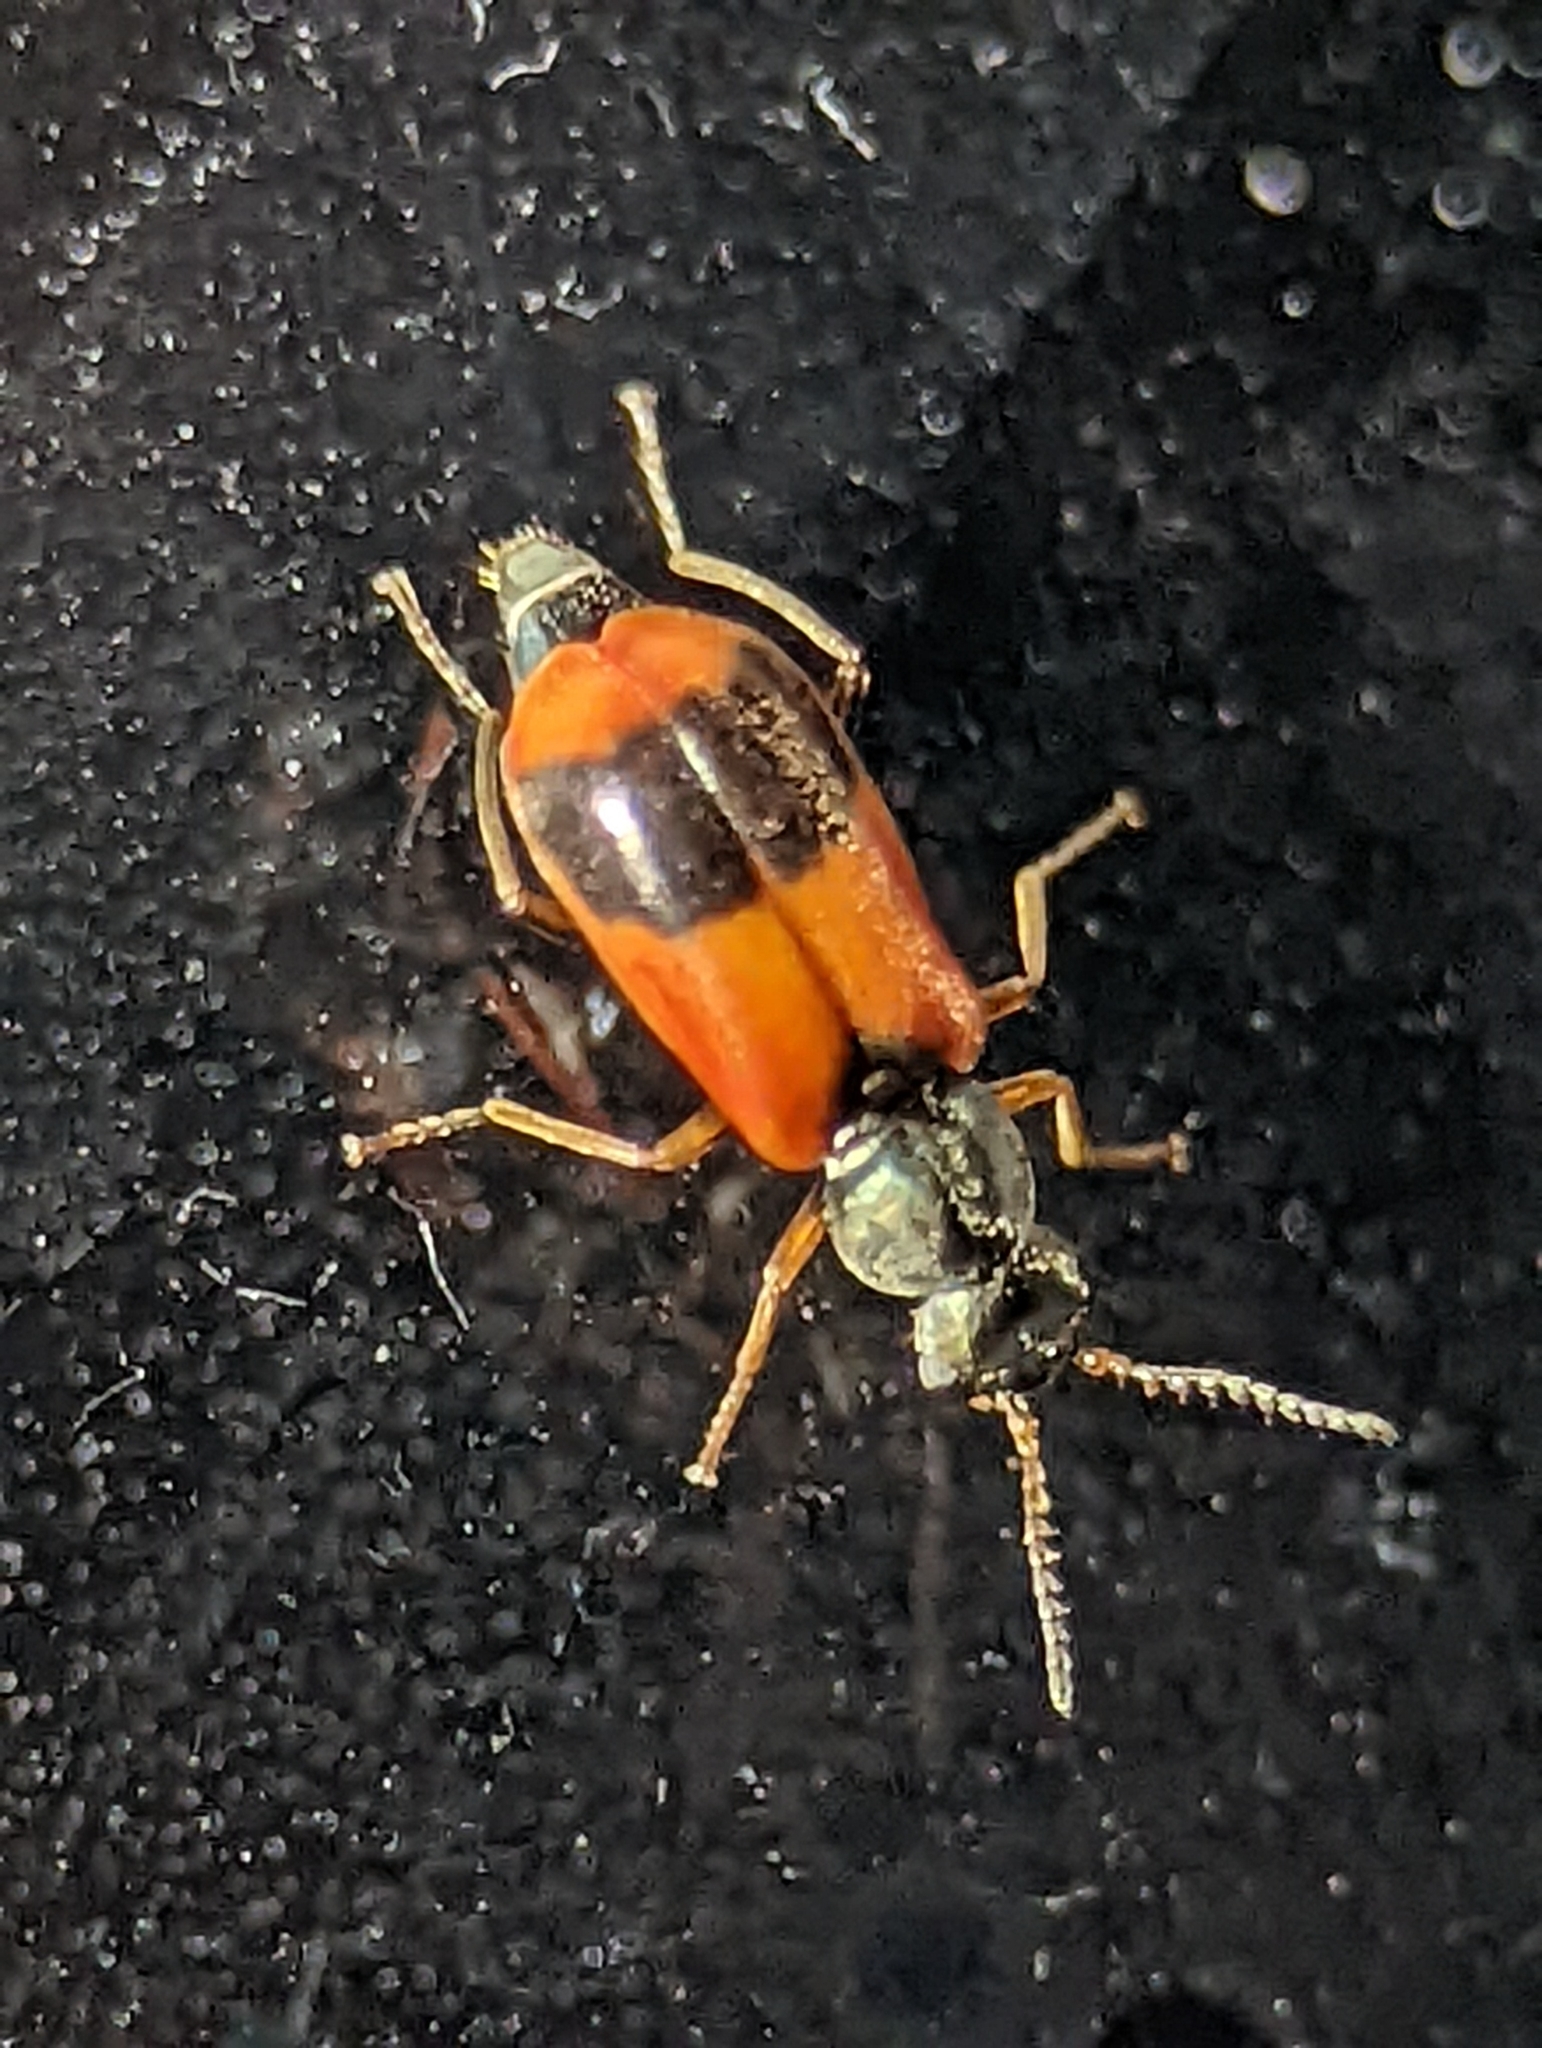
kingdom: Animalia
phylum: Arthropoda
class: Insecta
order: Coleoptera
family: Melyridae
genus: Anthocomus
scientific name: Anthocomus equestris
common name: Black-banded soft-winged flower beetle
